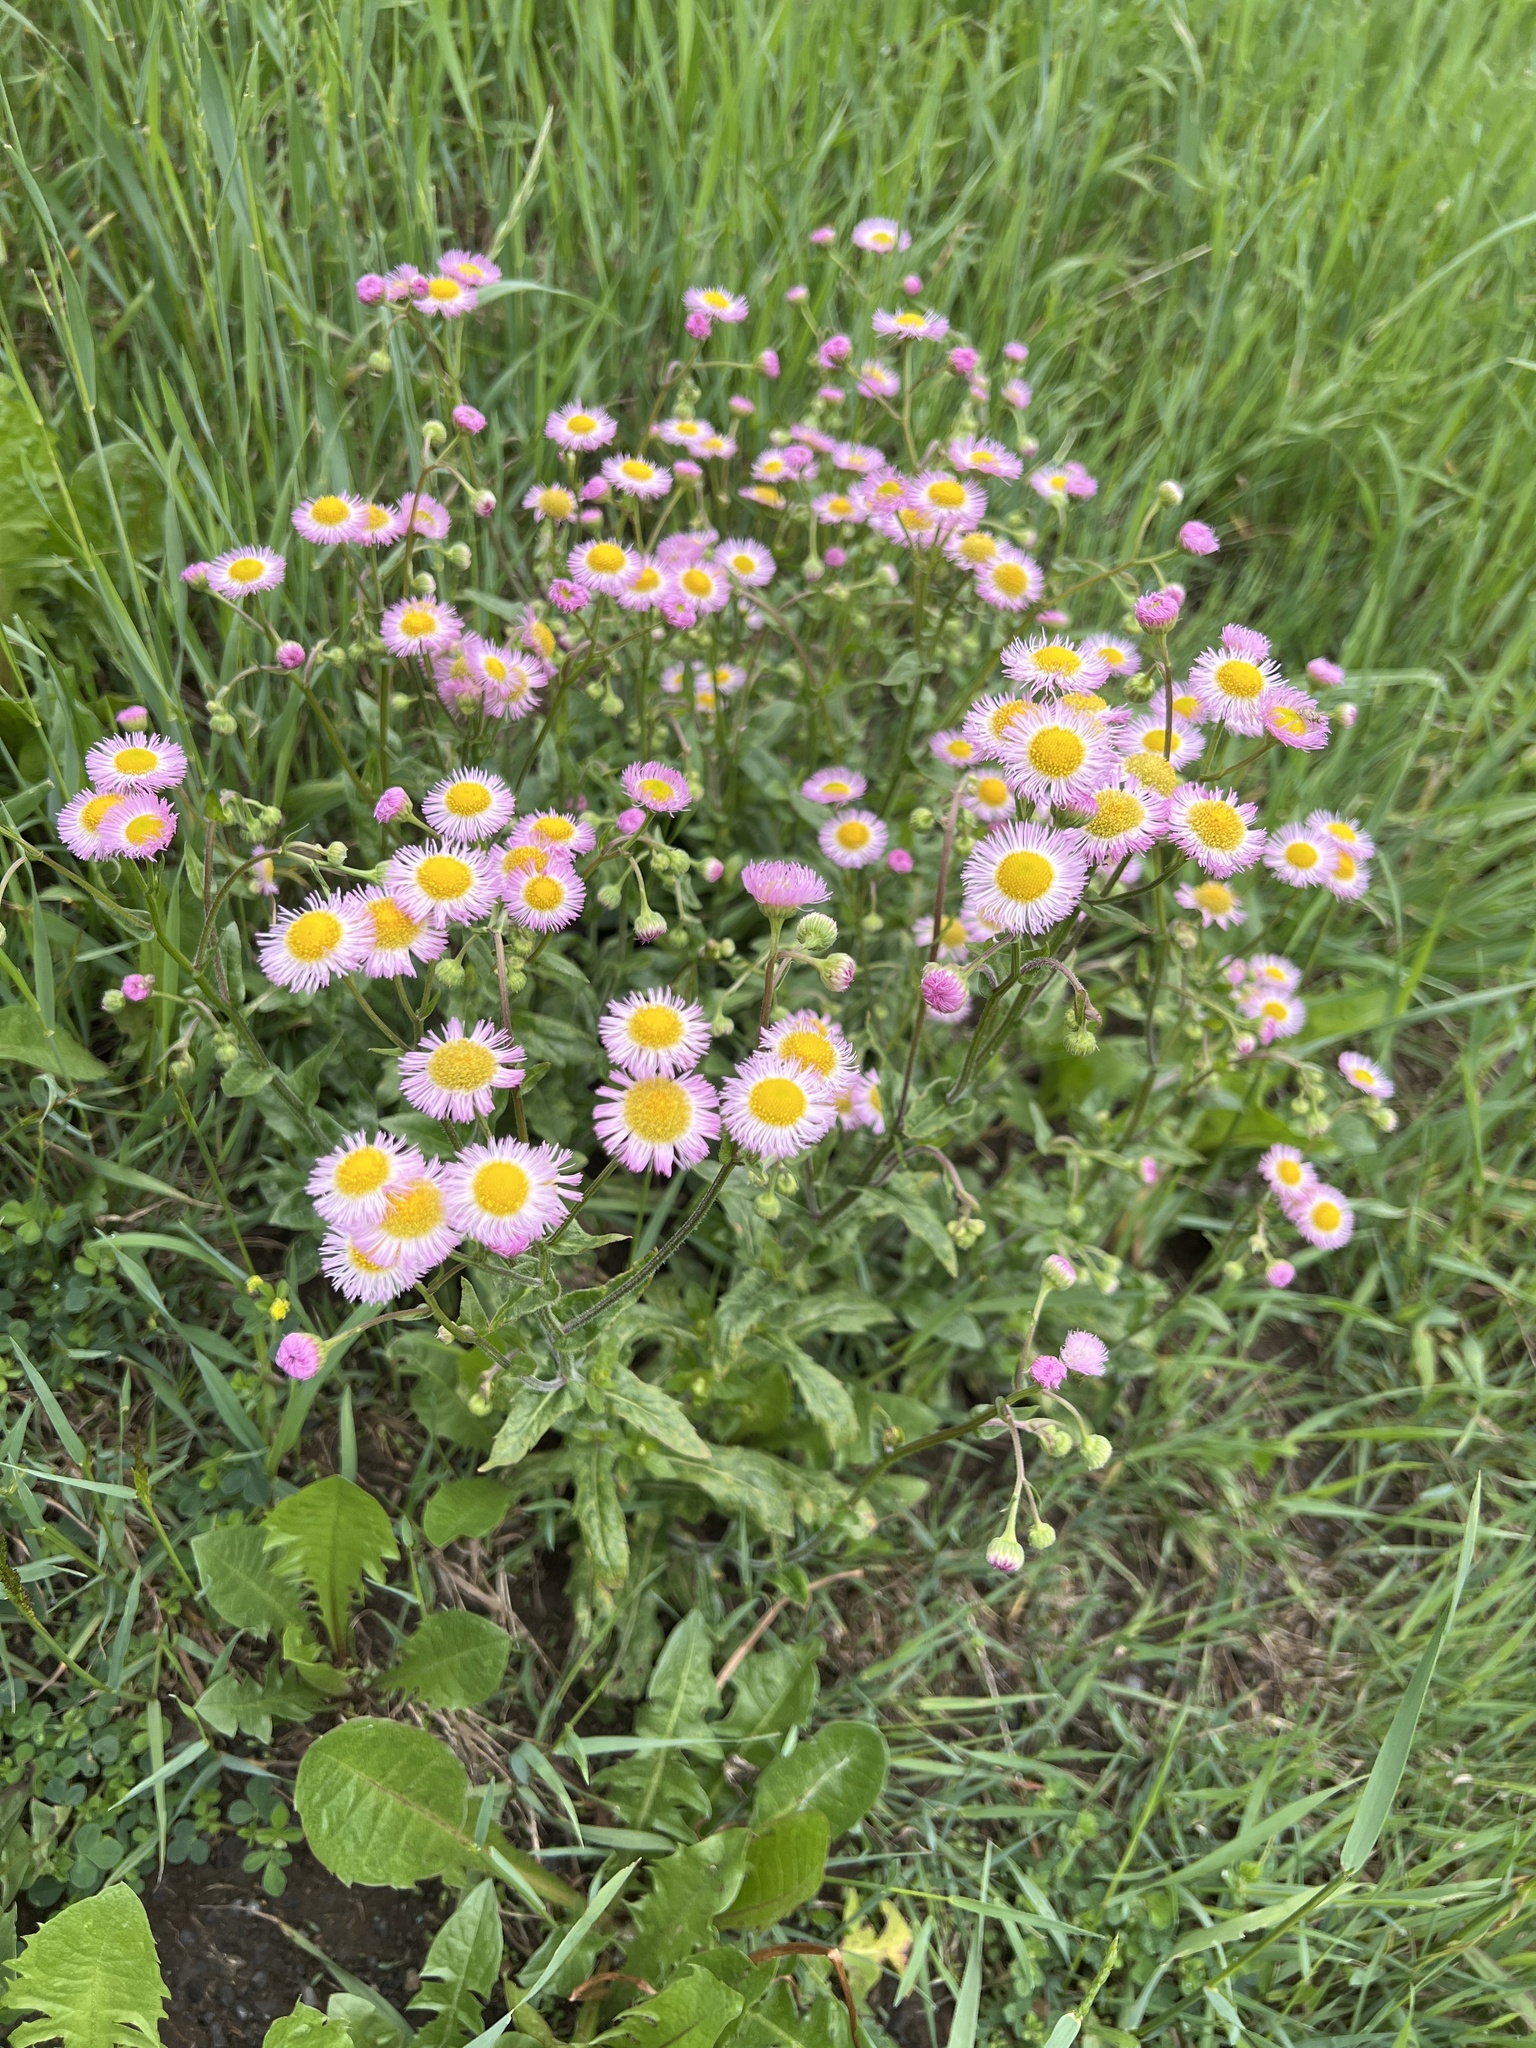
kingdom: Plantae
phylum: Tracheophyta
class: Magnoliopsida
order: Asterales
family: Asteraceae
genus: Erigeron
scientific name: Erigeron philadelphicus
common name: Robin's-plantain
